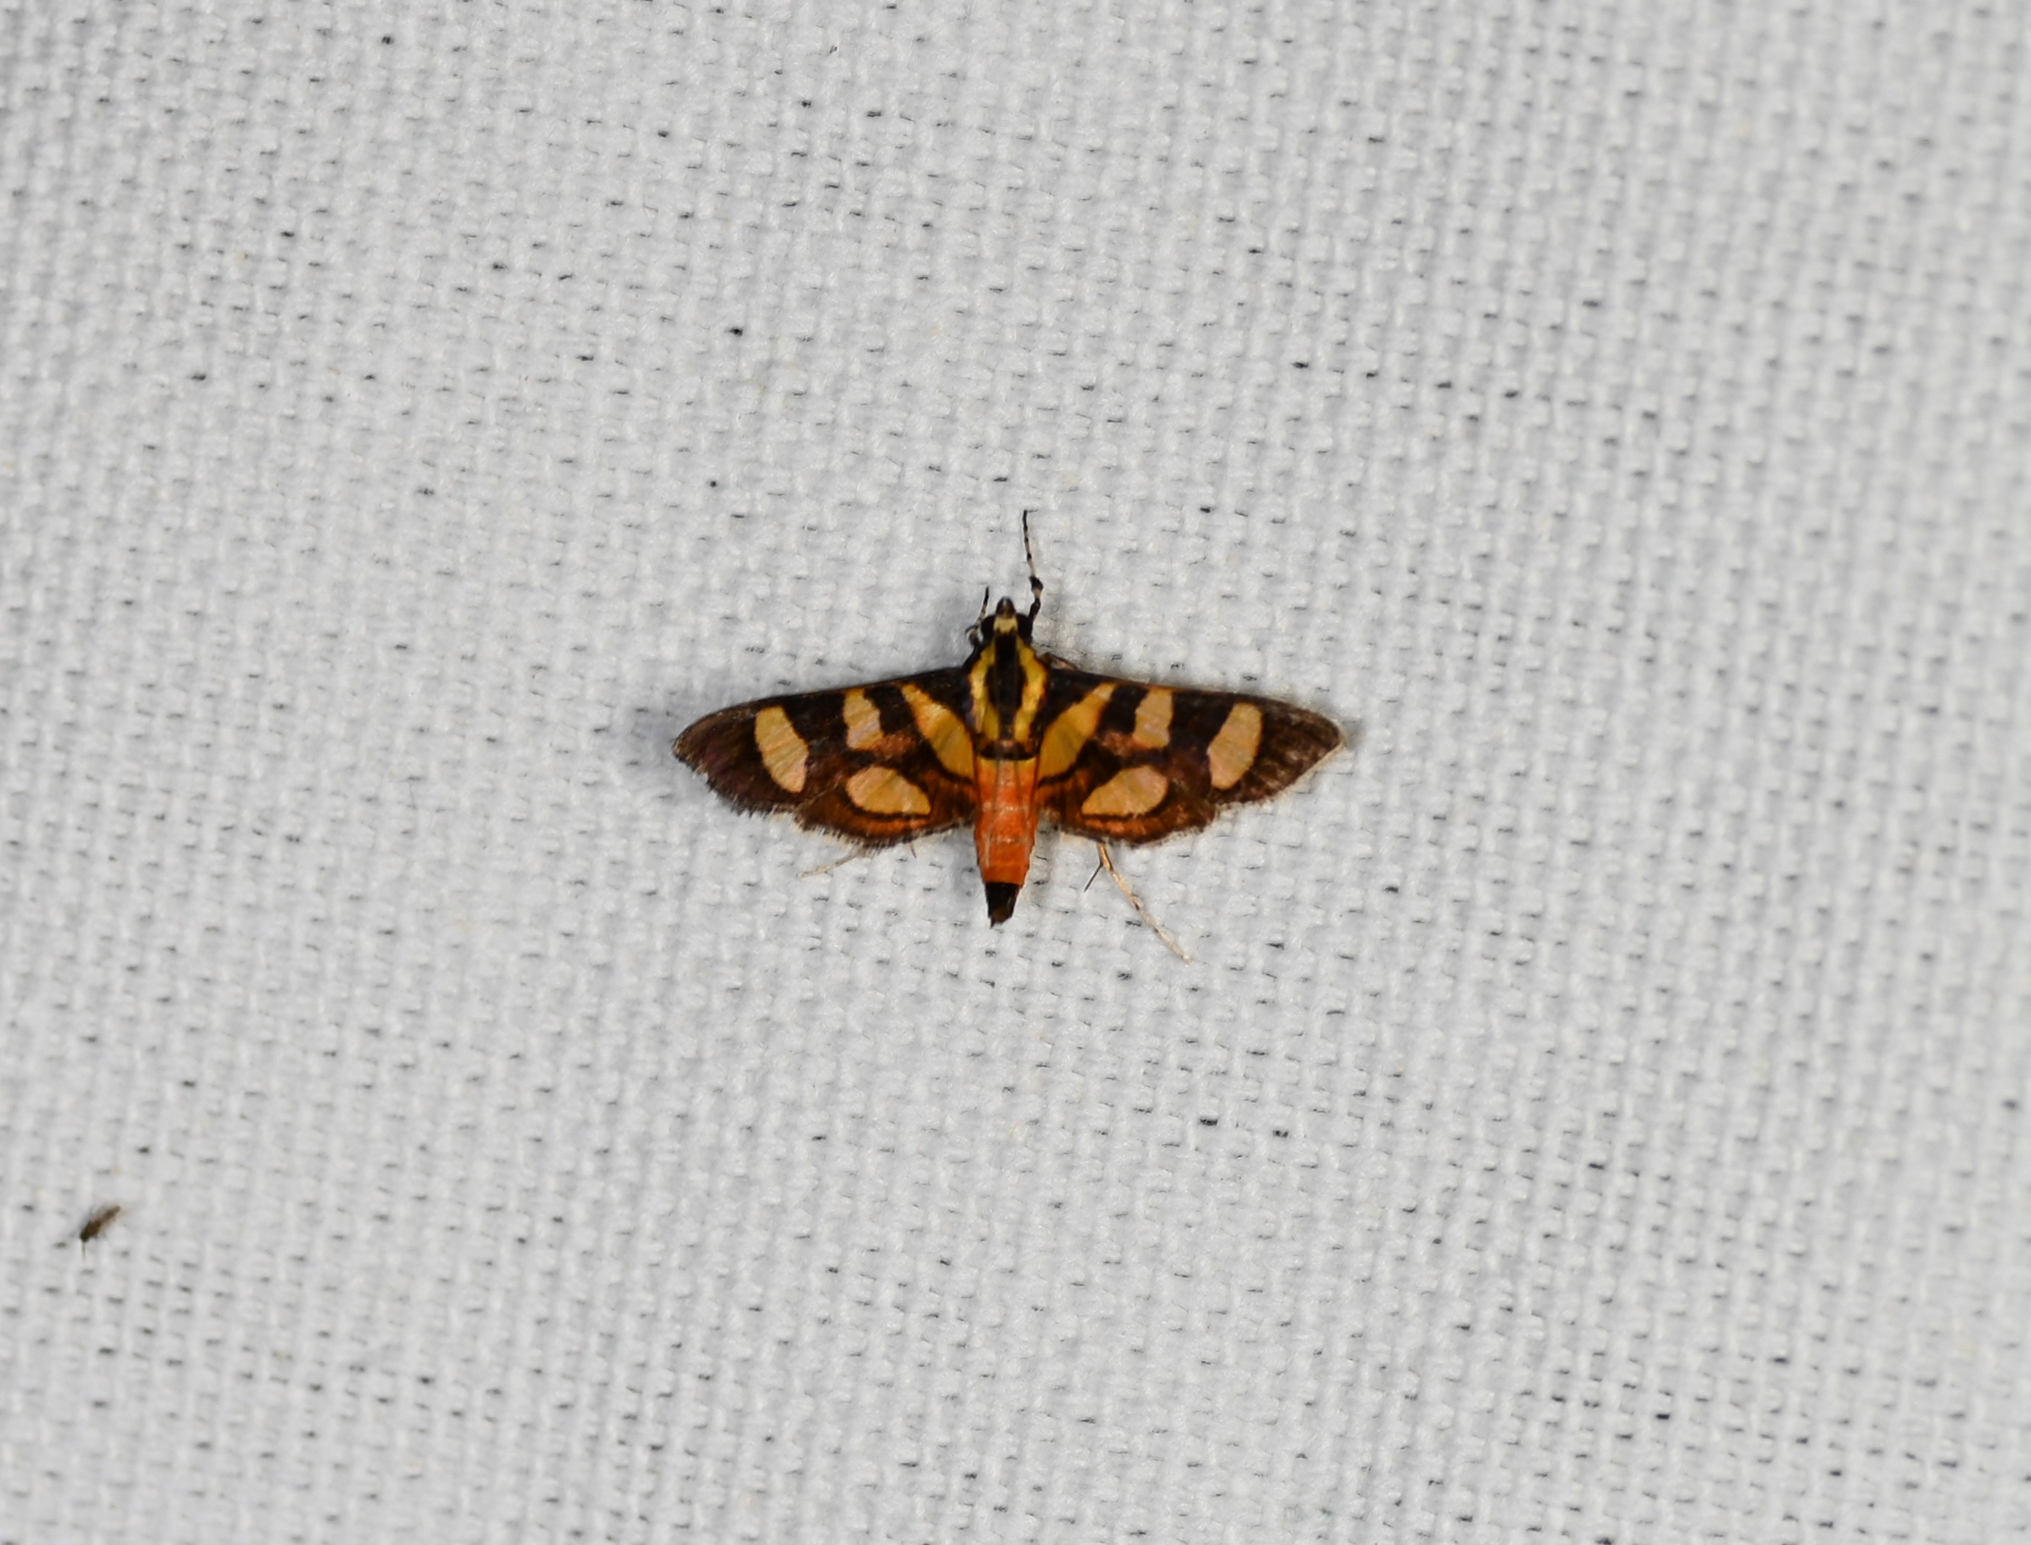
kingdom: Animalia
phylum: Arthropoda
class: Insecta
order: Lepidoptera
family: Crambidae
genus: Syngamia
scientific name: Syngamia florella
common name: Orange-spotted flower moth
